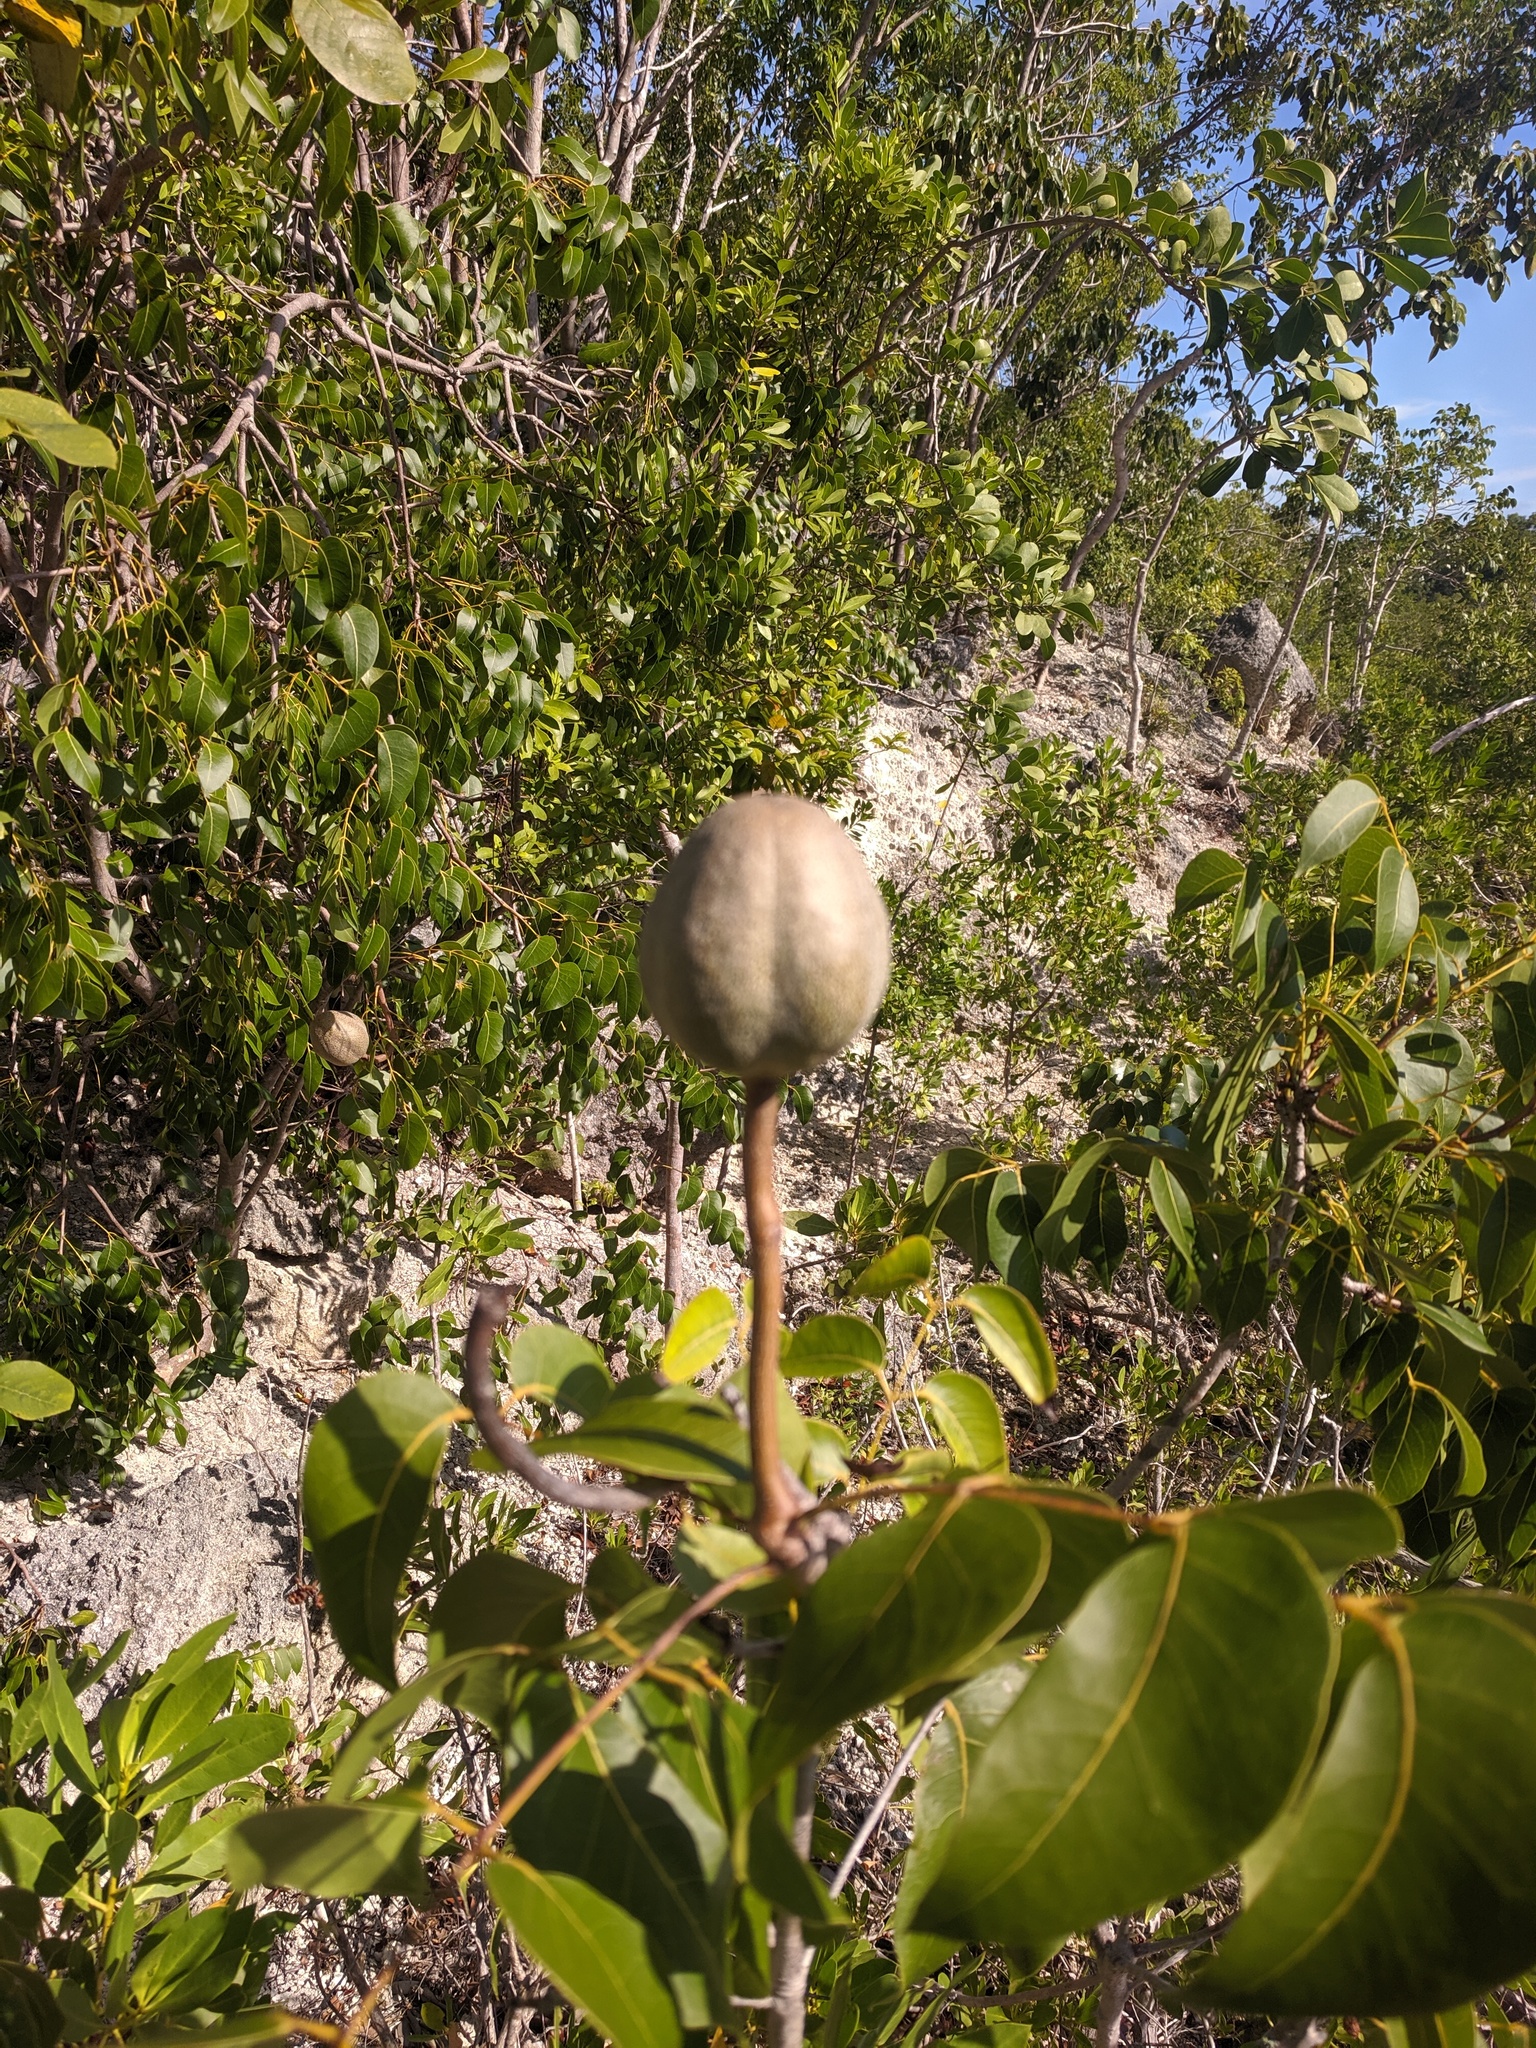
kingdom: Plantae
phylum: Tracheophyta
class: Magnoliopsida
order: Sapindales
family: Meliaceae
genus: Swietenia
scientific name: Swietenia mahagoni
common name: West indian mahogany
